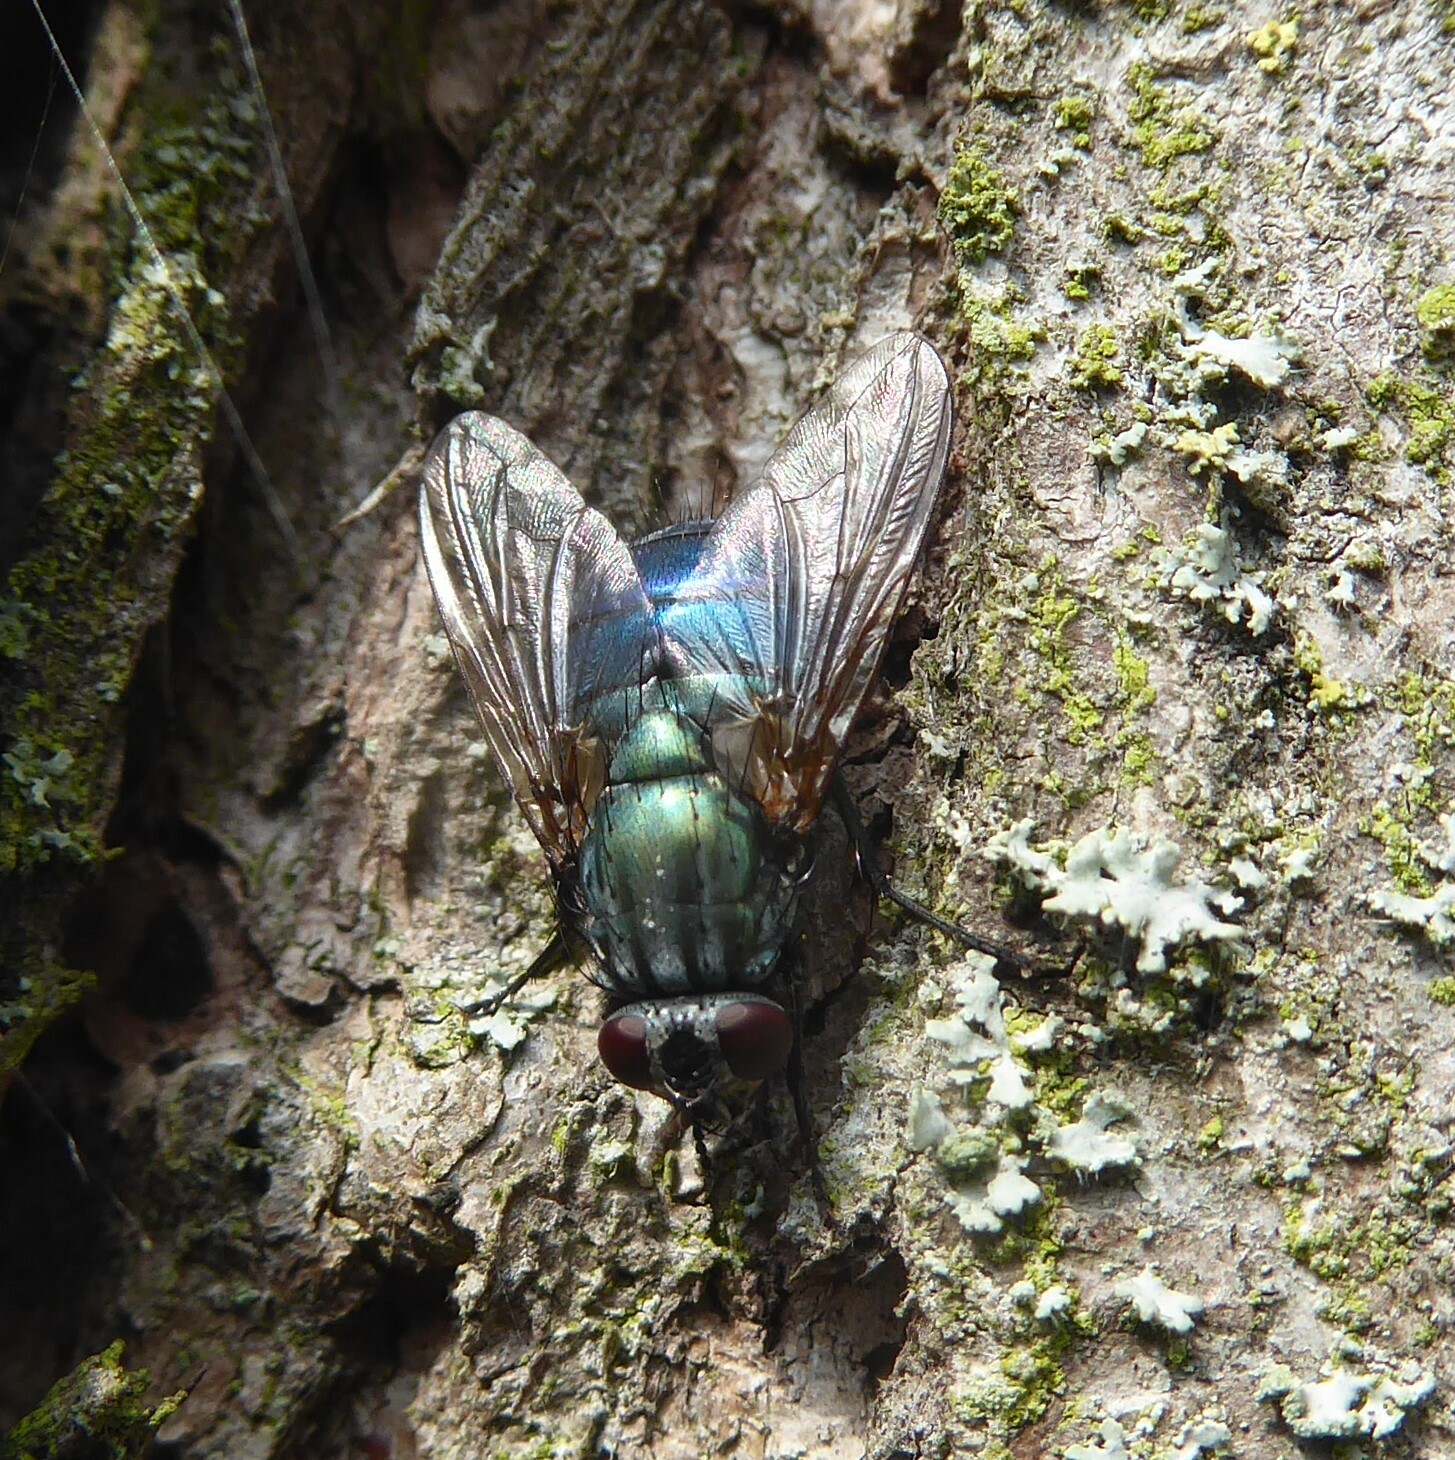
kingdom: Animalia
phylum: Arthropoda
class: Insecta
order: Diptera
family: Muscidae
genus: Dasyphora
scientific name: Dasyphora cyanella
